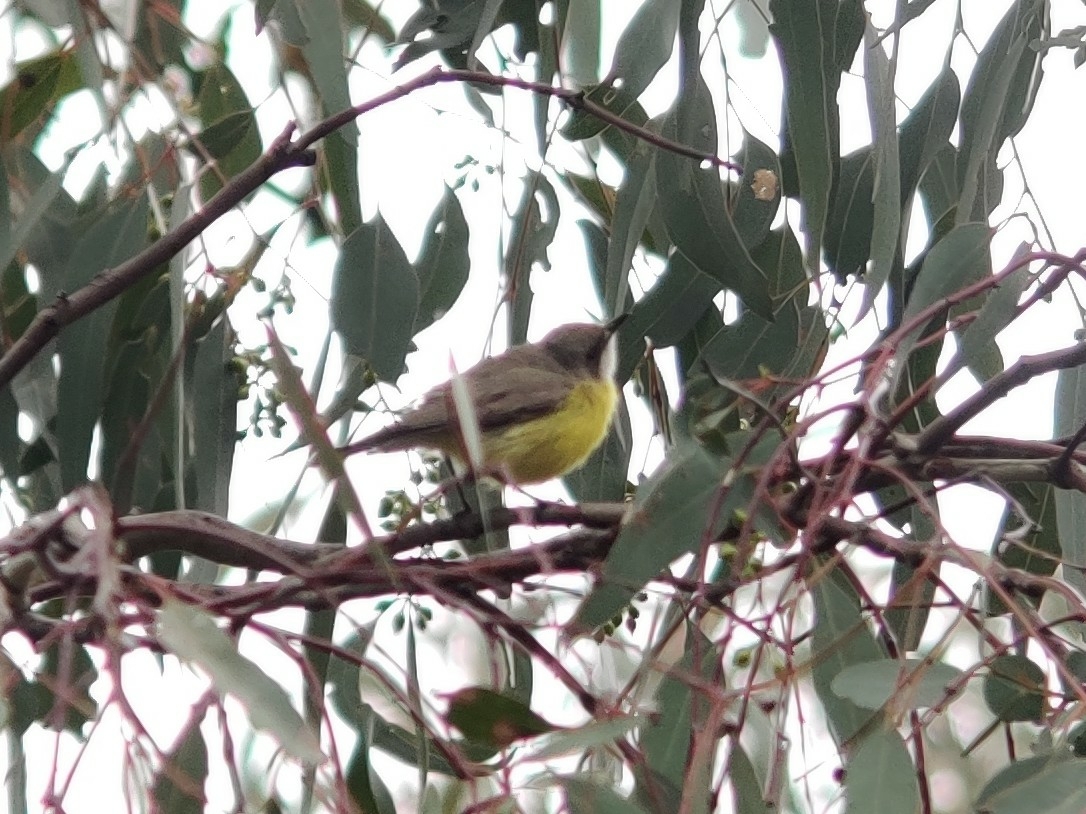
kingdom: Animalia
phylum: Chordata
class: Aves
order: Passeriformes
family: Acanthizidae
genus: Gerygone
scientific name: Gerygone olivacea
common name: White-throated gerygone
